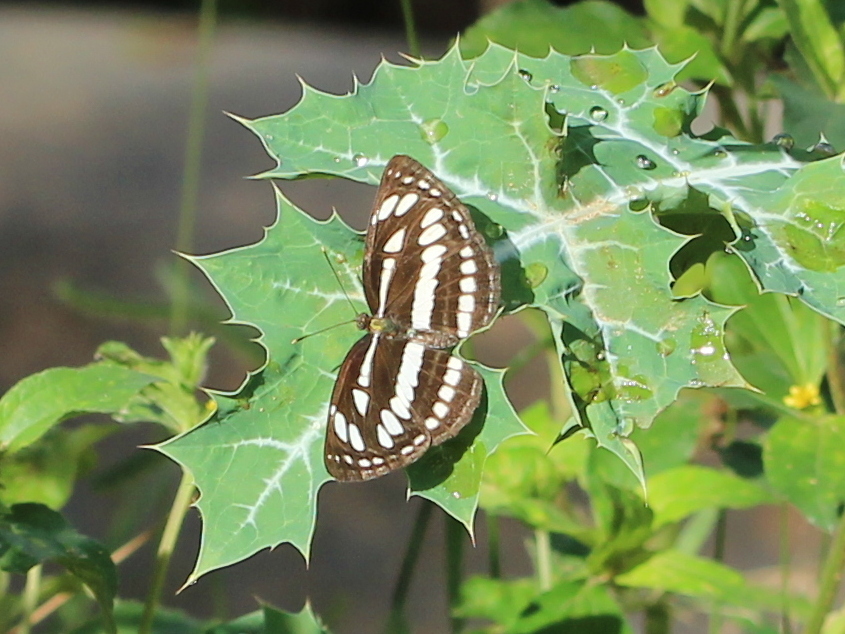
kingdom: Animalia
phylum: Arthropoda
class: Insecta
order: Lepidoptera
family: Nymphalidae
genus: Neptis
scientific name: Neptis hylas
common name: Common sailer
